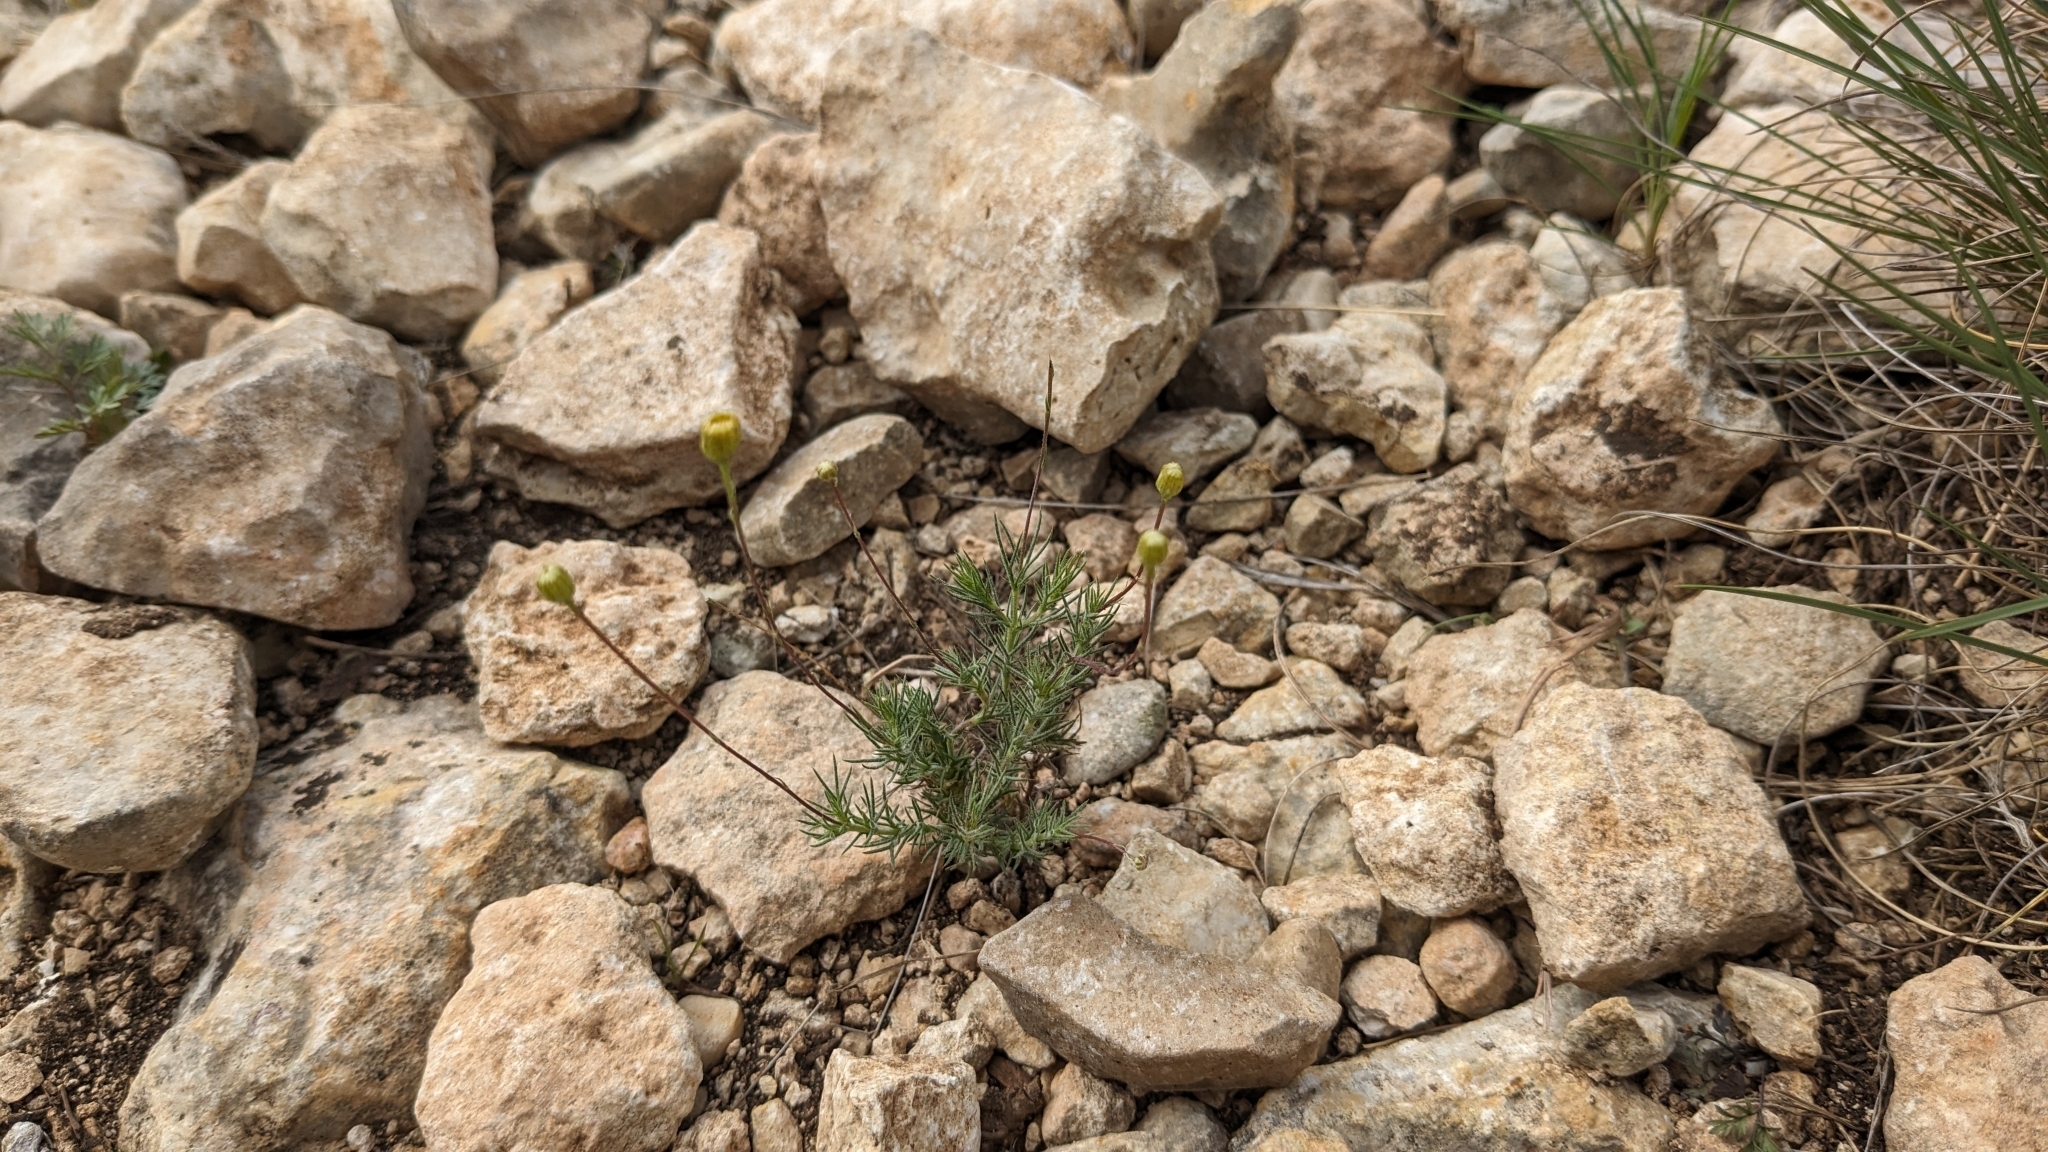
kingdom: Plantae
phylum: Tracheophyta
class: Magnoliopsida
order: Asterales
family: Asteraceae
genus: Thymophylla
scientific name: Thymophylla pentachaeta
